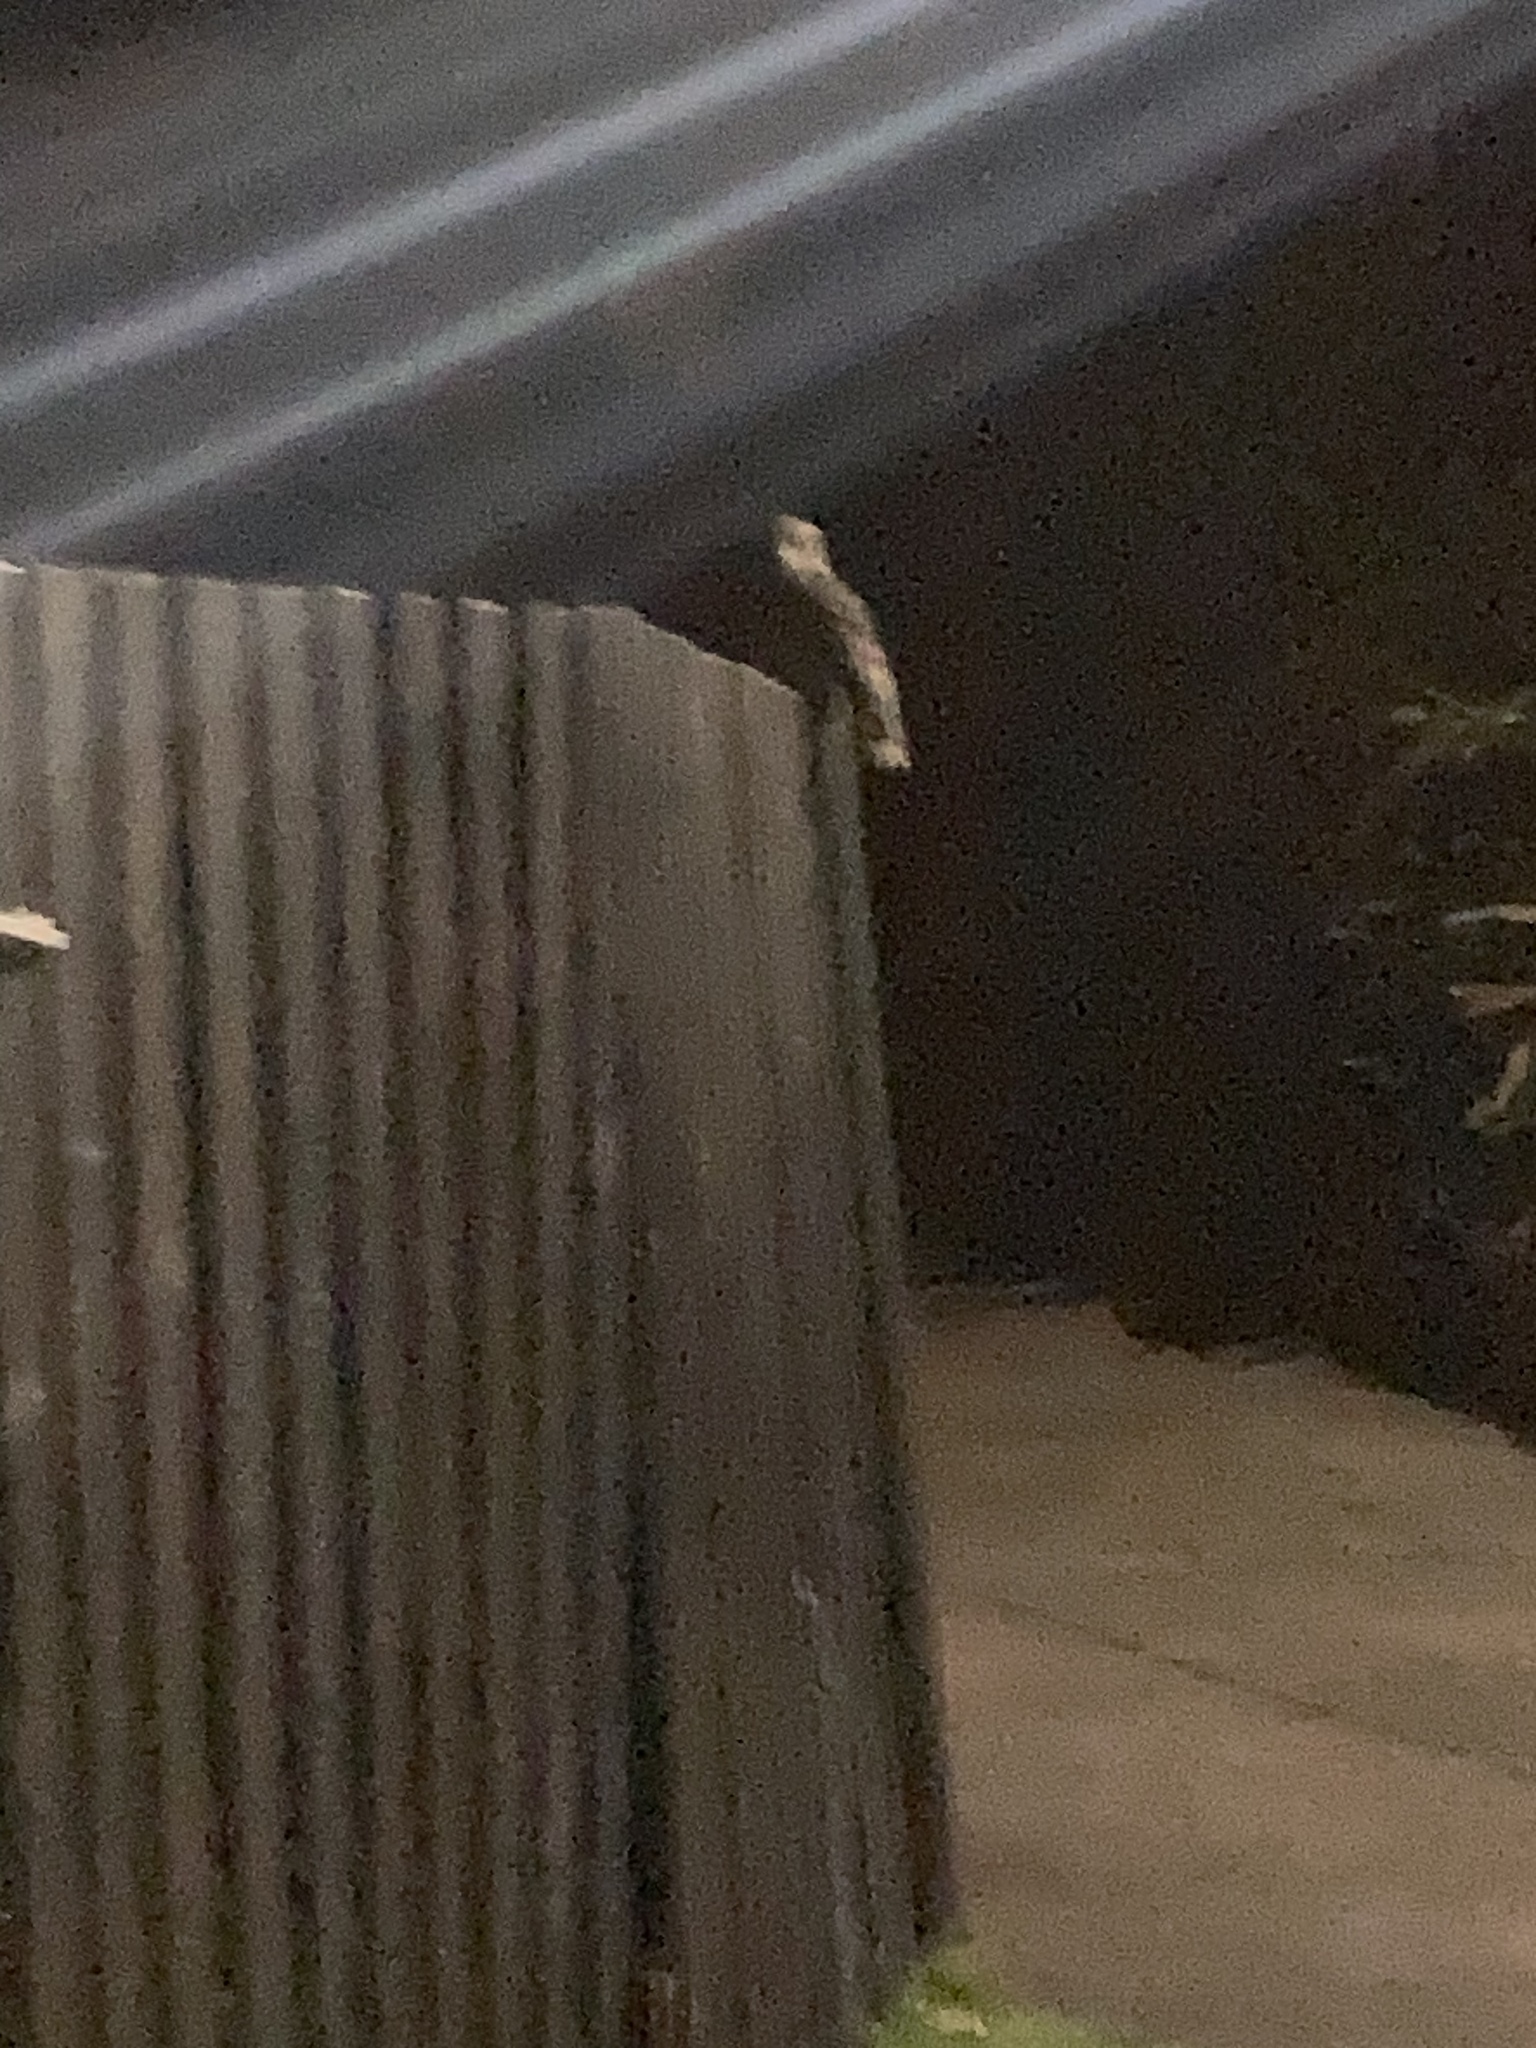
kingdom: Animalia
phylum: Chordata
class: Aves
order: Caprimulgiformes
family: Podargidae
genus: Podargus
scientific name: Podargus strigoides
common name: Tawny frogmouth
